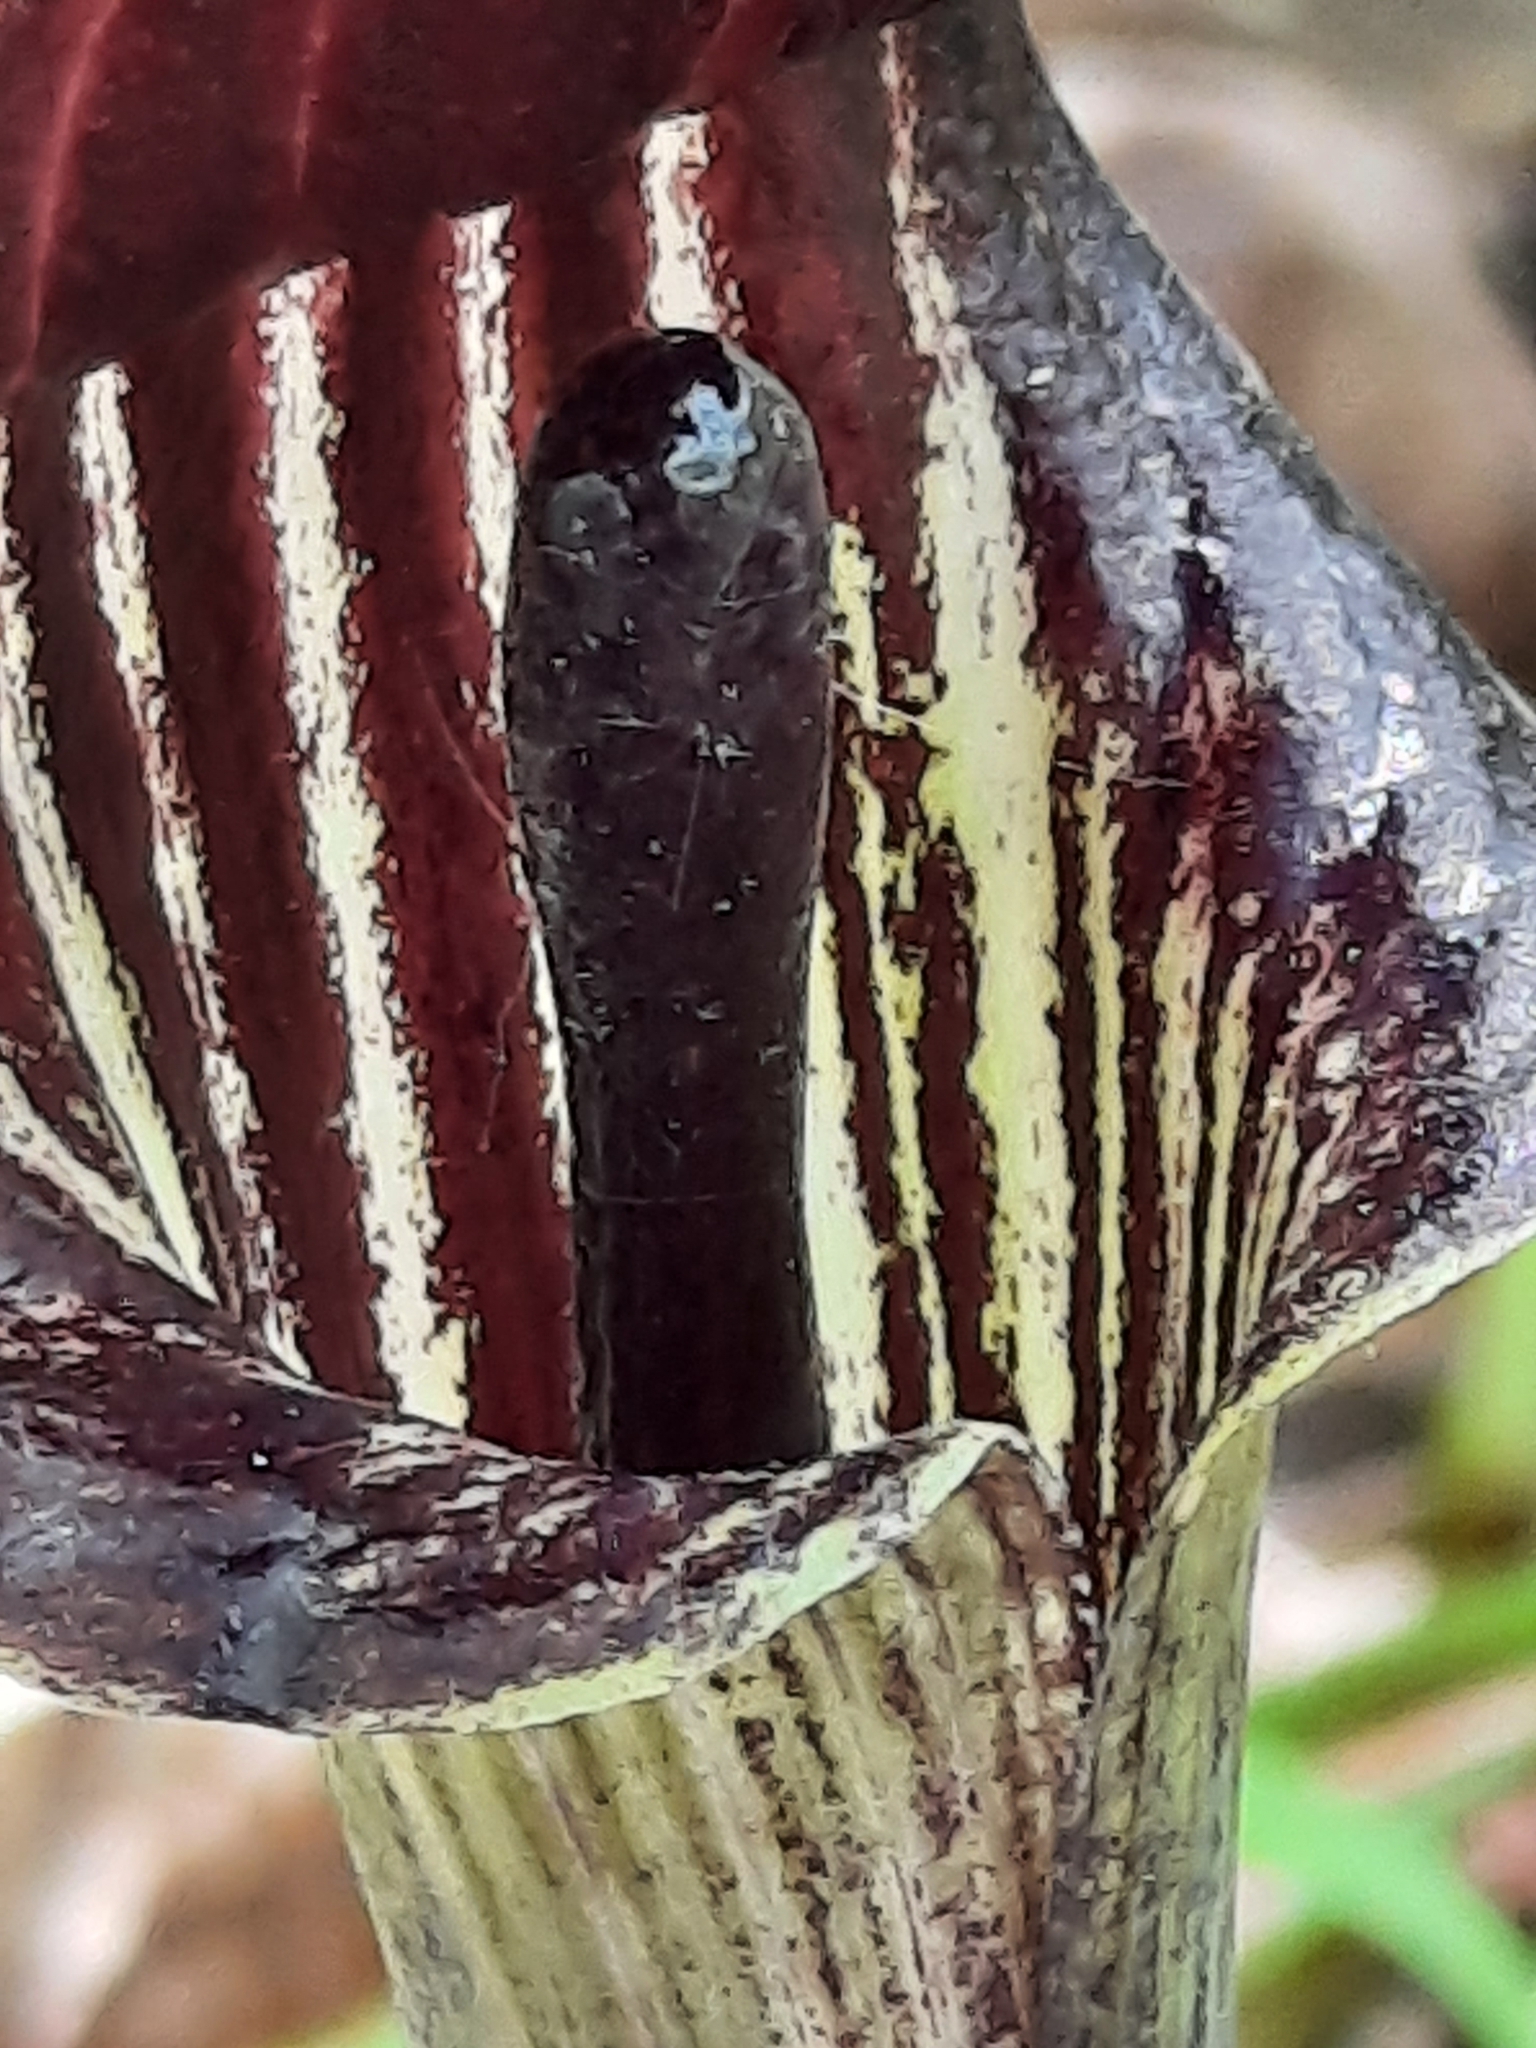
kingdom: Plantae
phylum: Tracheophyta
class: Liliopsida
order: Alismatales
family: Araceae
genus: Arisaema
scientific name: Arisaema triphyllum
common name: Jack-in-the-pulpit
